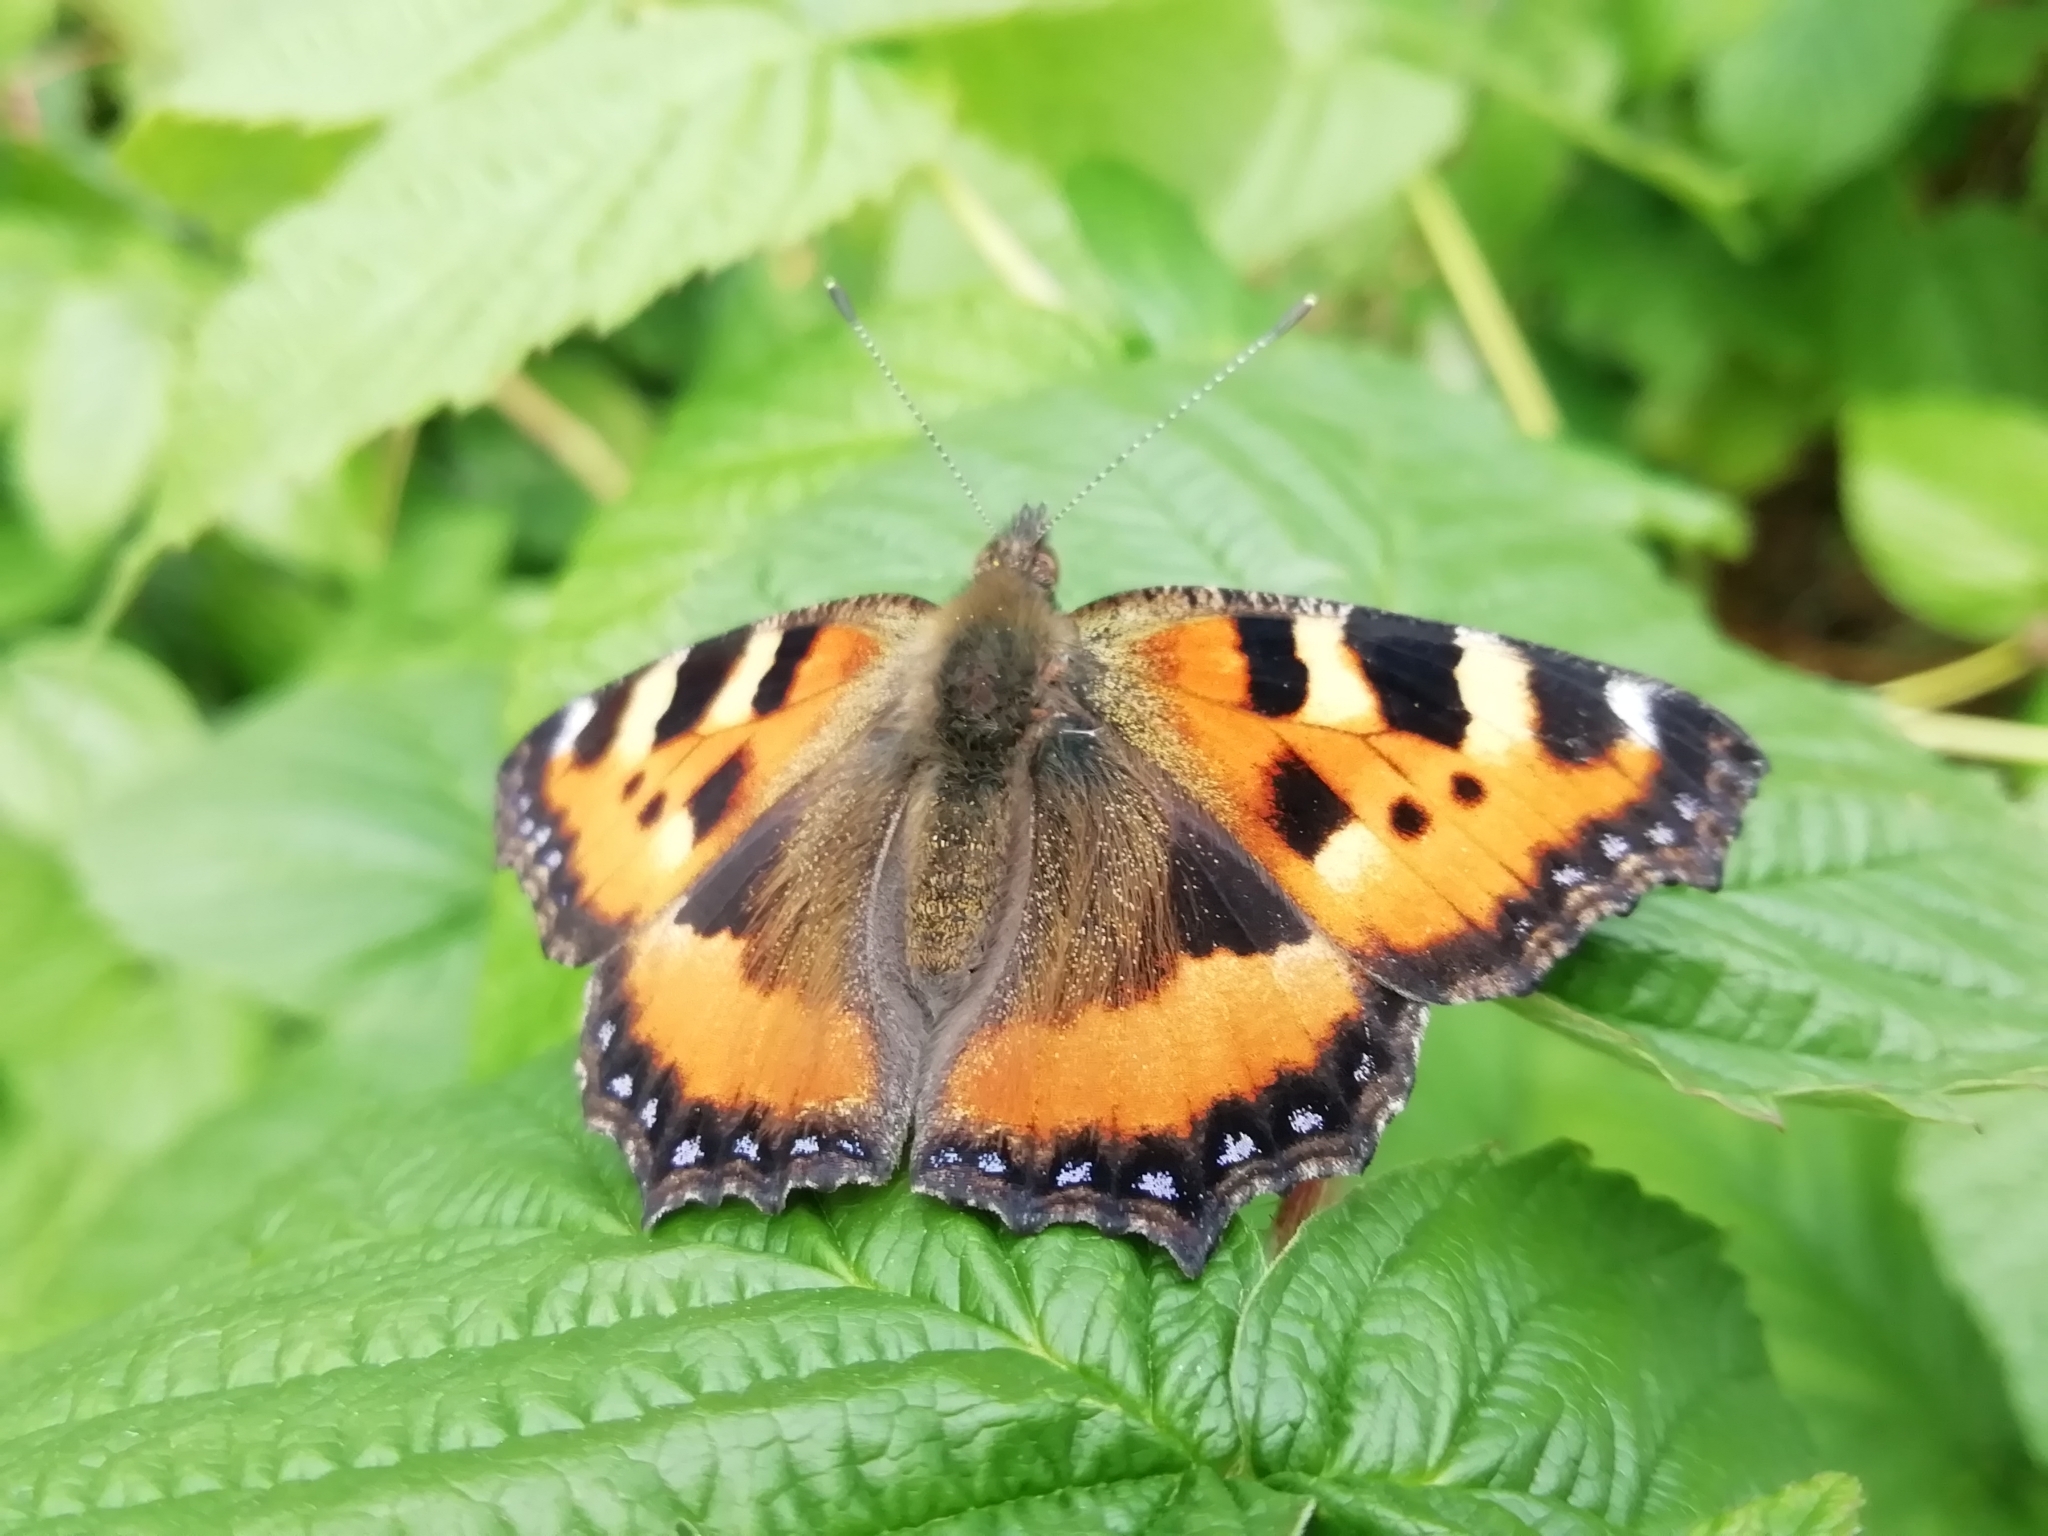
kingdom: Animalia
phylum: Arthropoda
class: Insecta
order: Lepidoptera
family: Nymphalidae
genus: Aglais
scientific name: Aglais urticae
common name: Small tortoiseshell
